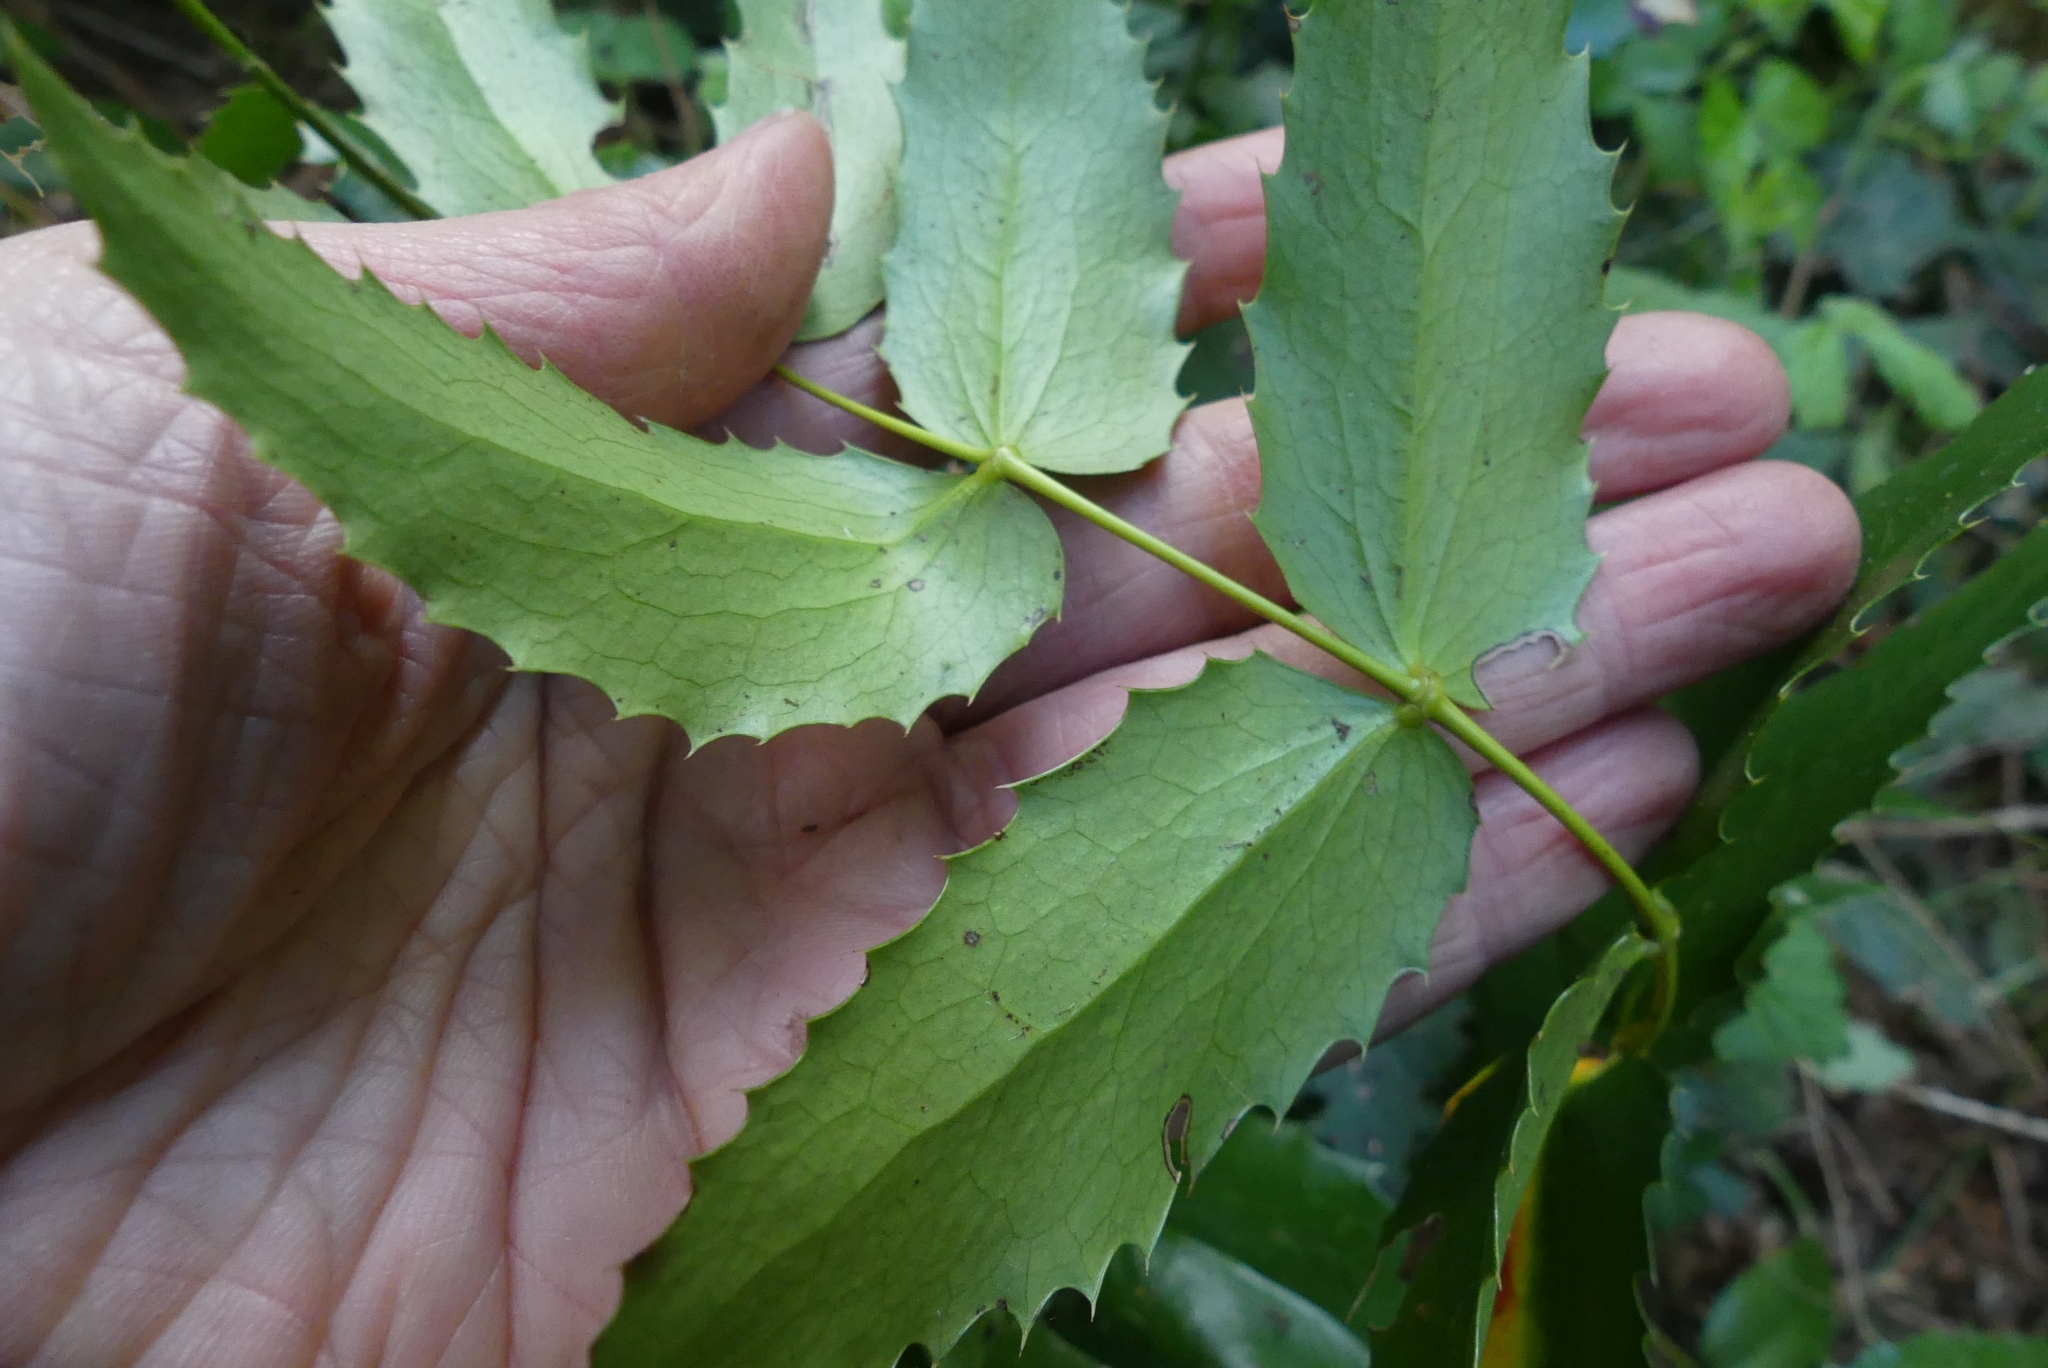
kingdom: Plantae
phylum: Tracheophyta
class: Magnoliopsida
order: Ranunculales
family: Berberidaceae
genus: Mahonia
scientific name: Mahonia nervosa
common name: Cascade oregon-grape
